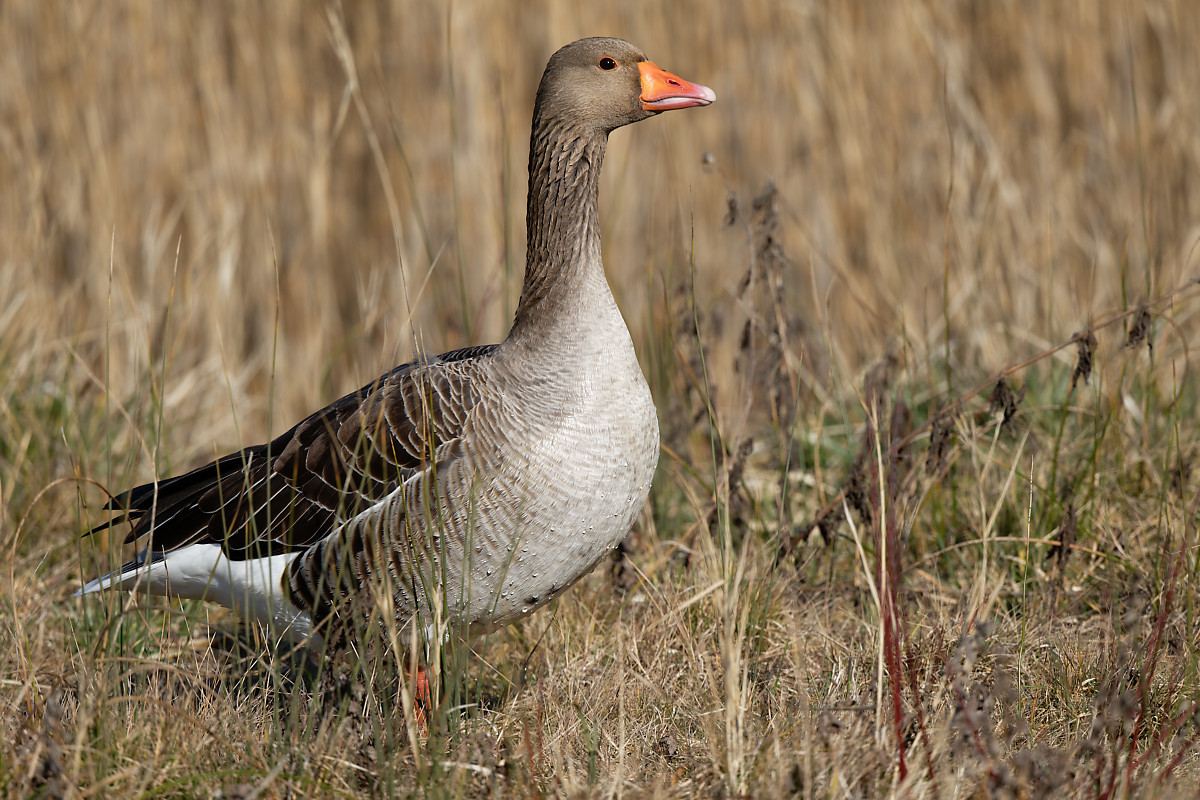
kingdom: Animalia
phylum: Chordata
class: Aves
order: Anseriformes
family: Anatidae
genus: Anser
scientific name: Anser anser
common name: Greylag goose
